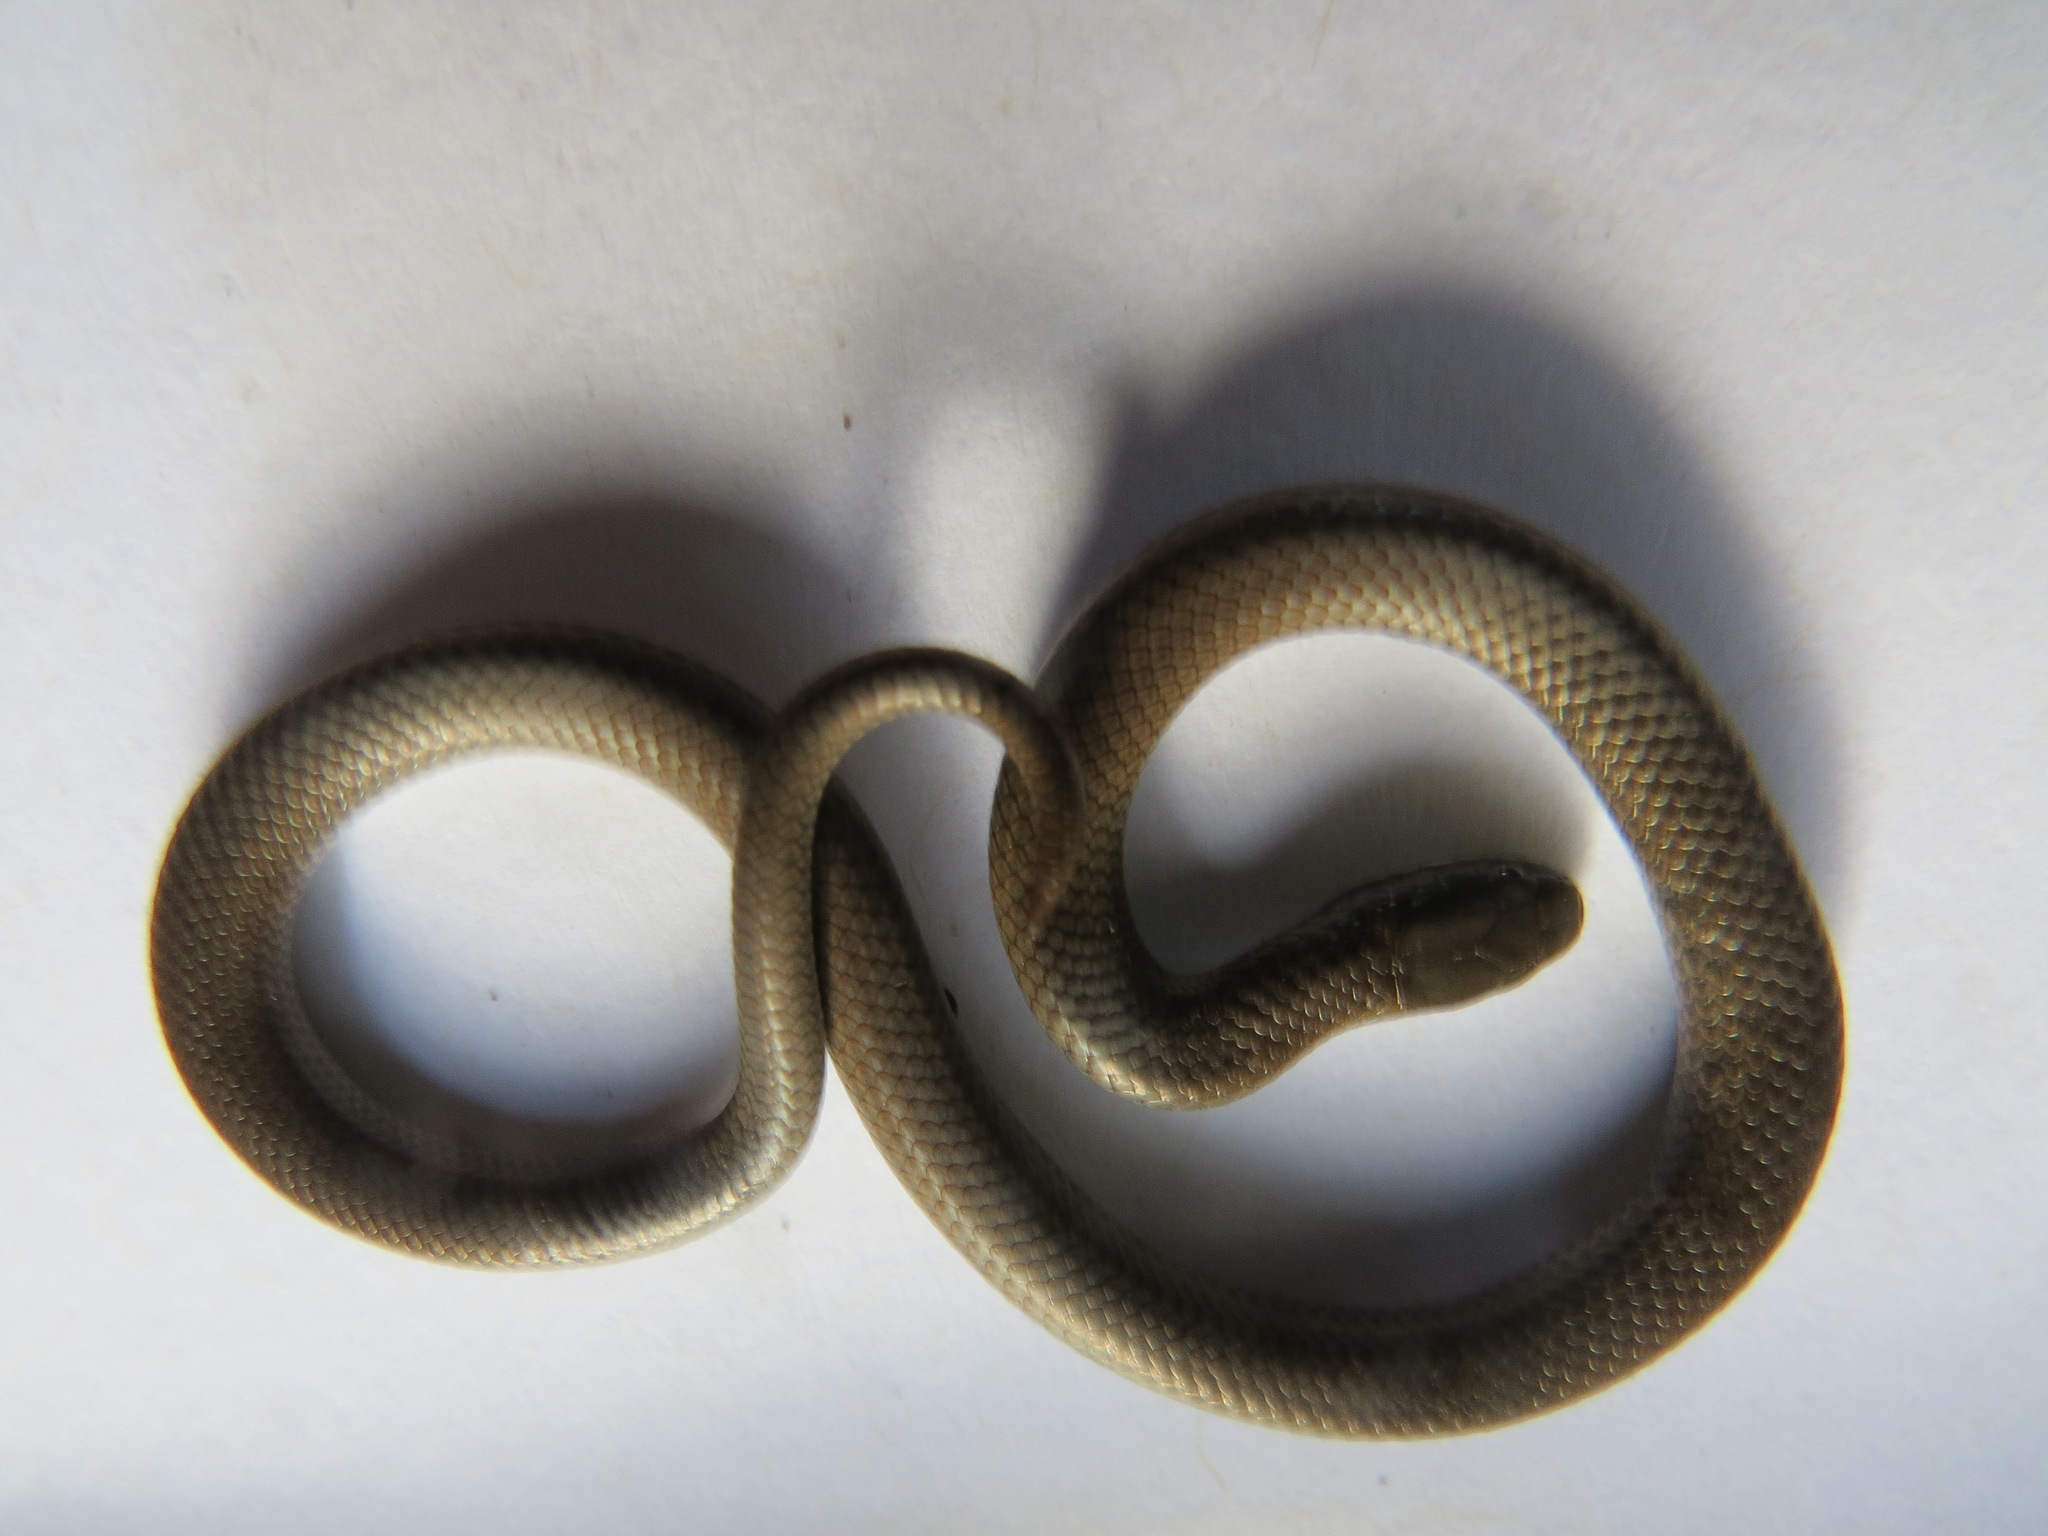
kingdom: Animalia
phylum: Chordata
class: Squamata
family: Colubridae
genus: Contia
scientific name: Contia longicaudae
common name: Forest sharp-tailed snake
